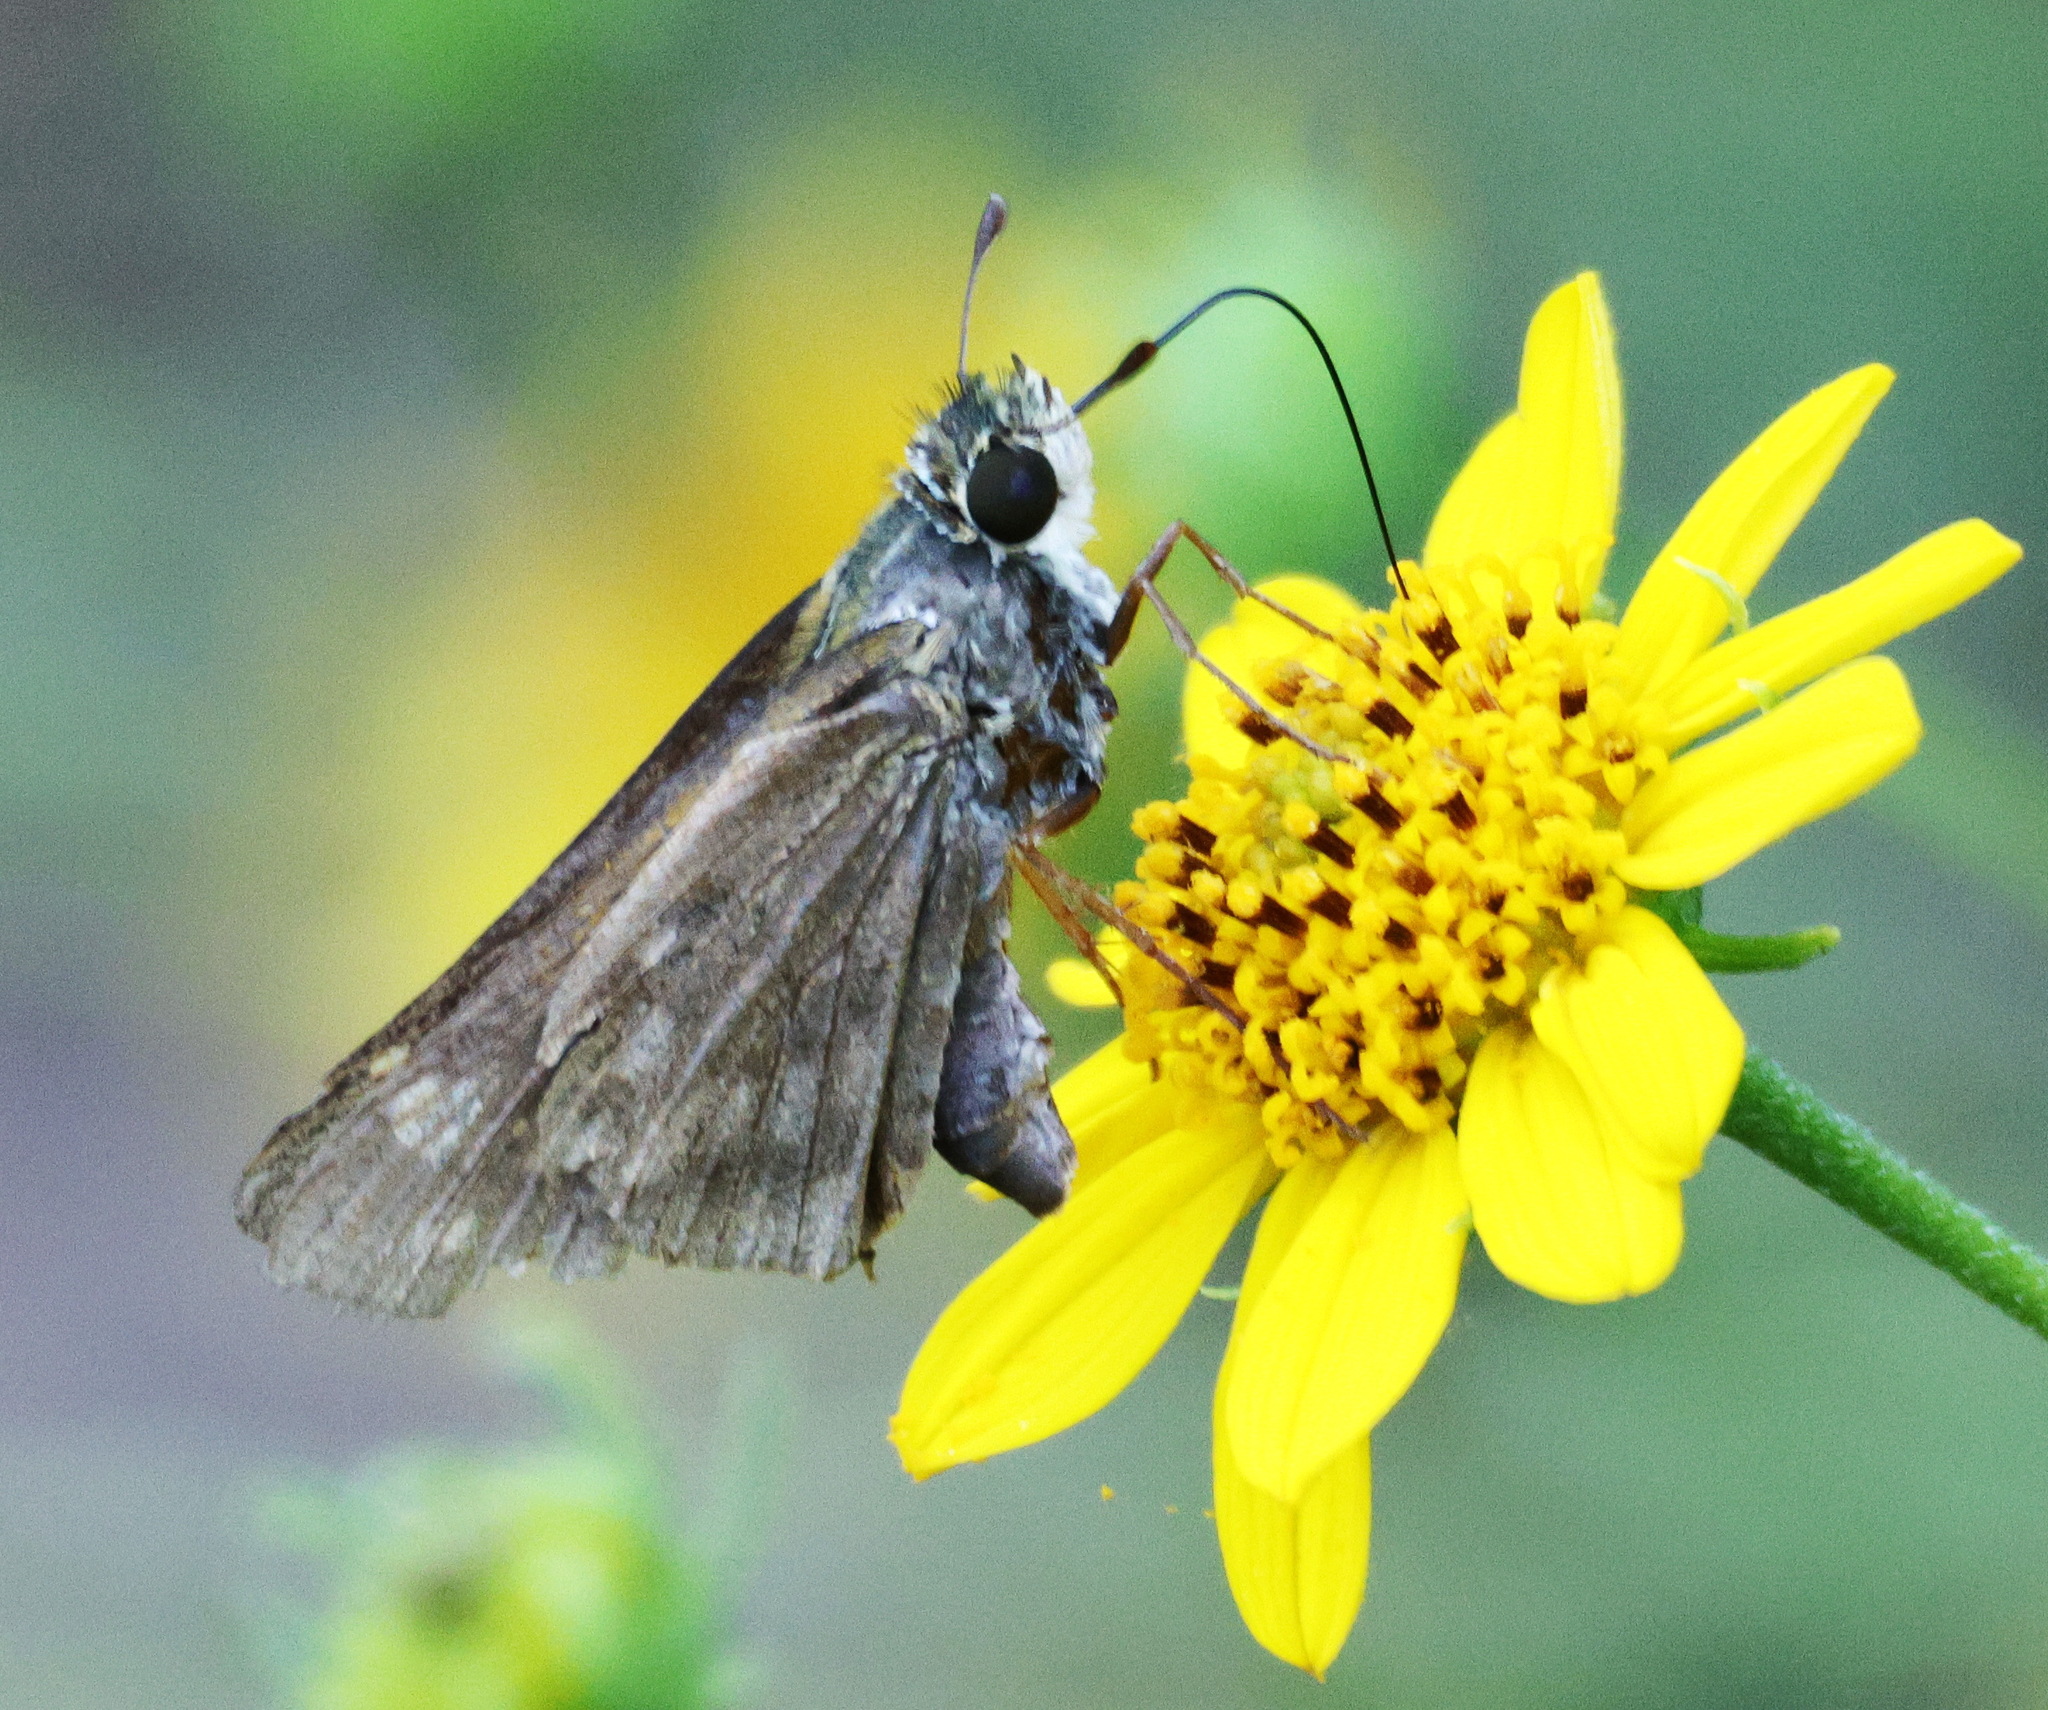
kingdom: Animalia
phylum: Arthropoda
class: Insecta
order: Lepidoptera
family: Hesperiidae
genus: Atalopedes
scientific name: Atalopedes
